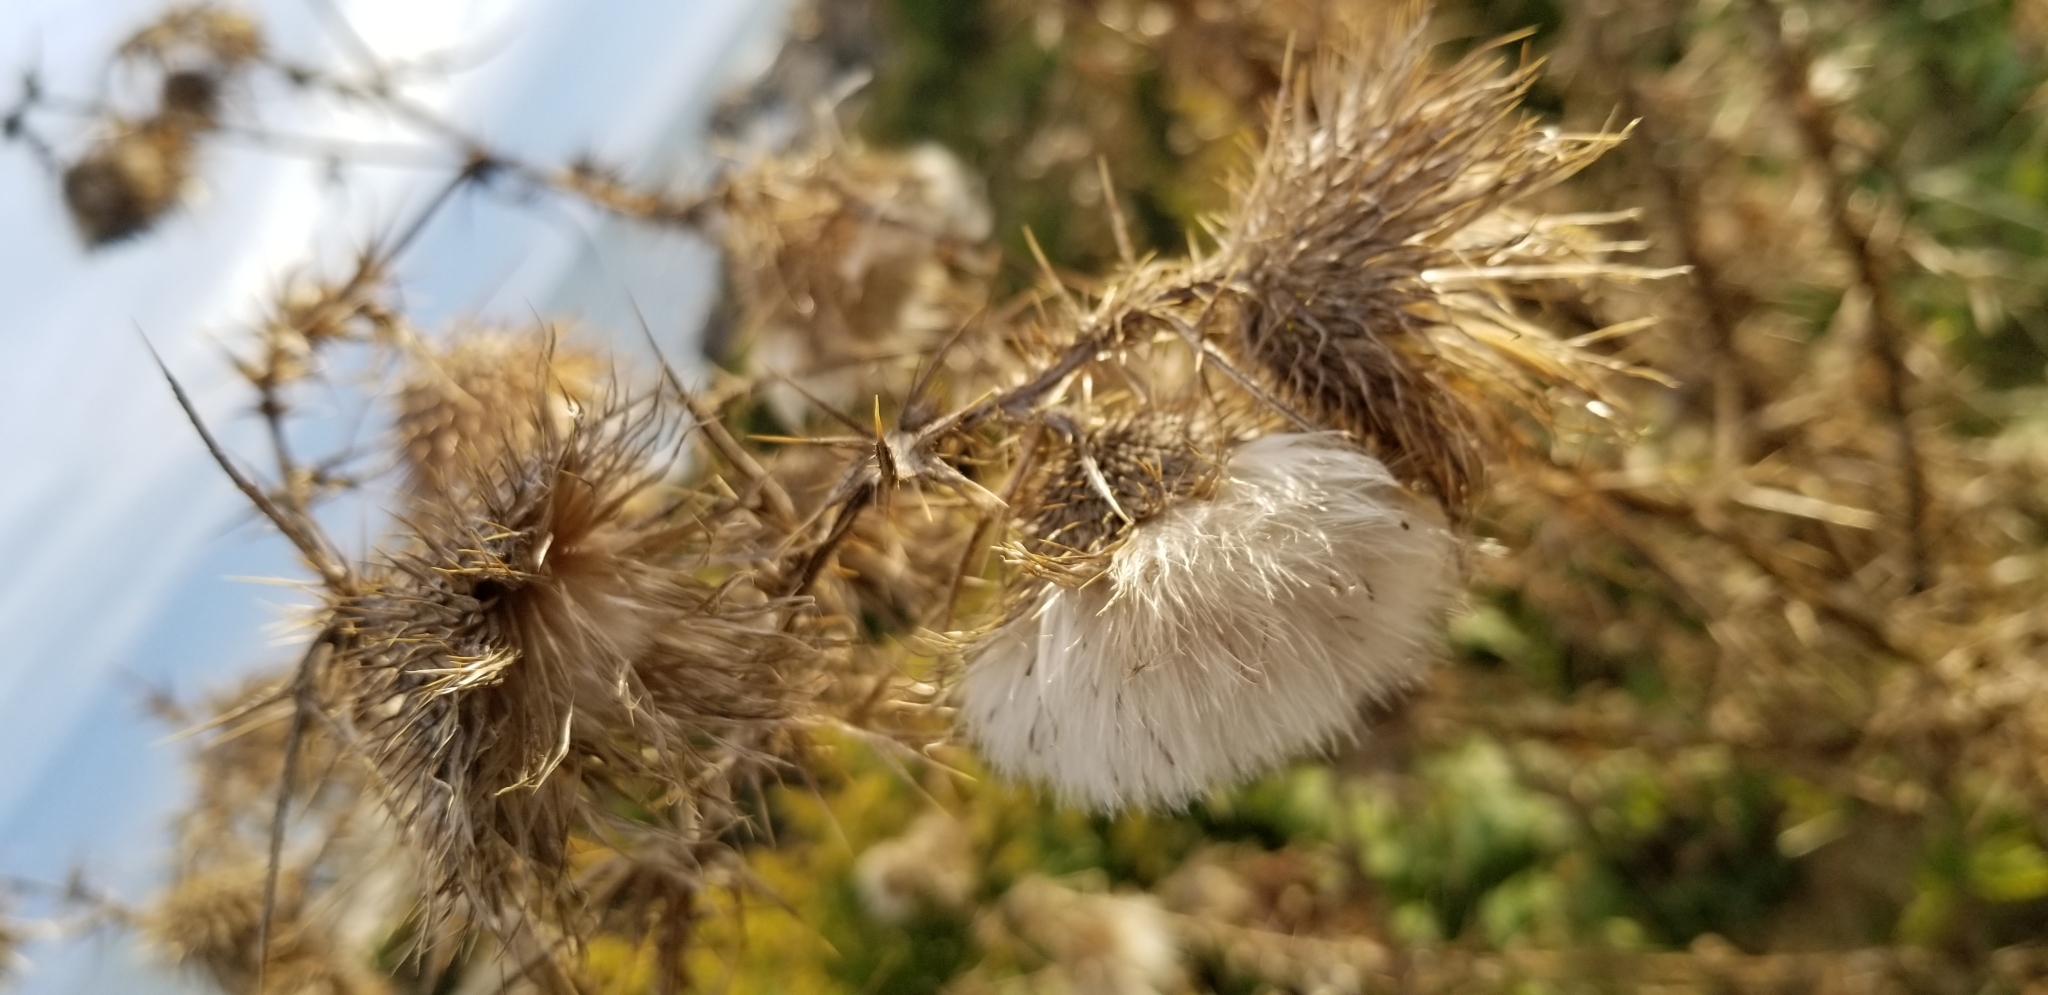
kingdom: Plantae
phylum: Tracheophyta
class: Magnoliopsida
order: Asterales
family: Asteraceae
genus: Cirsium
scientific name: Cirsium vulgare
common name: Bull thistle
